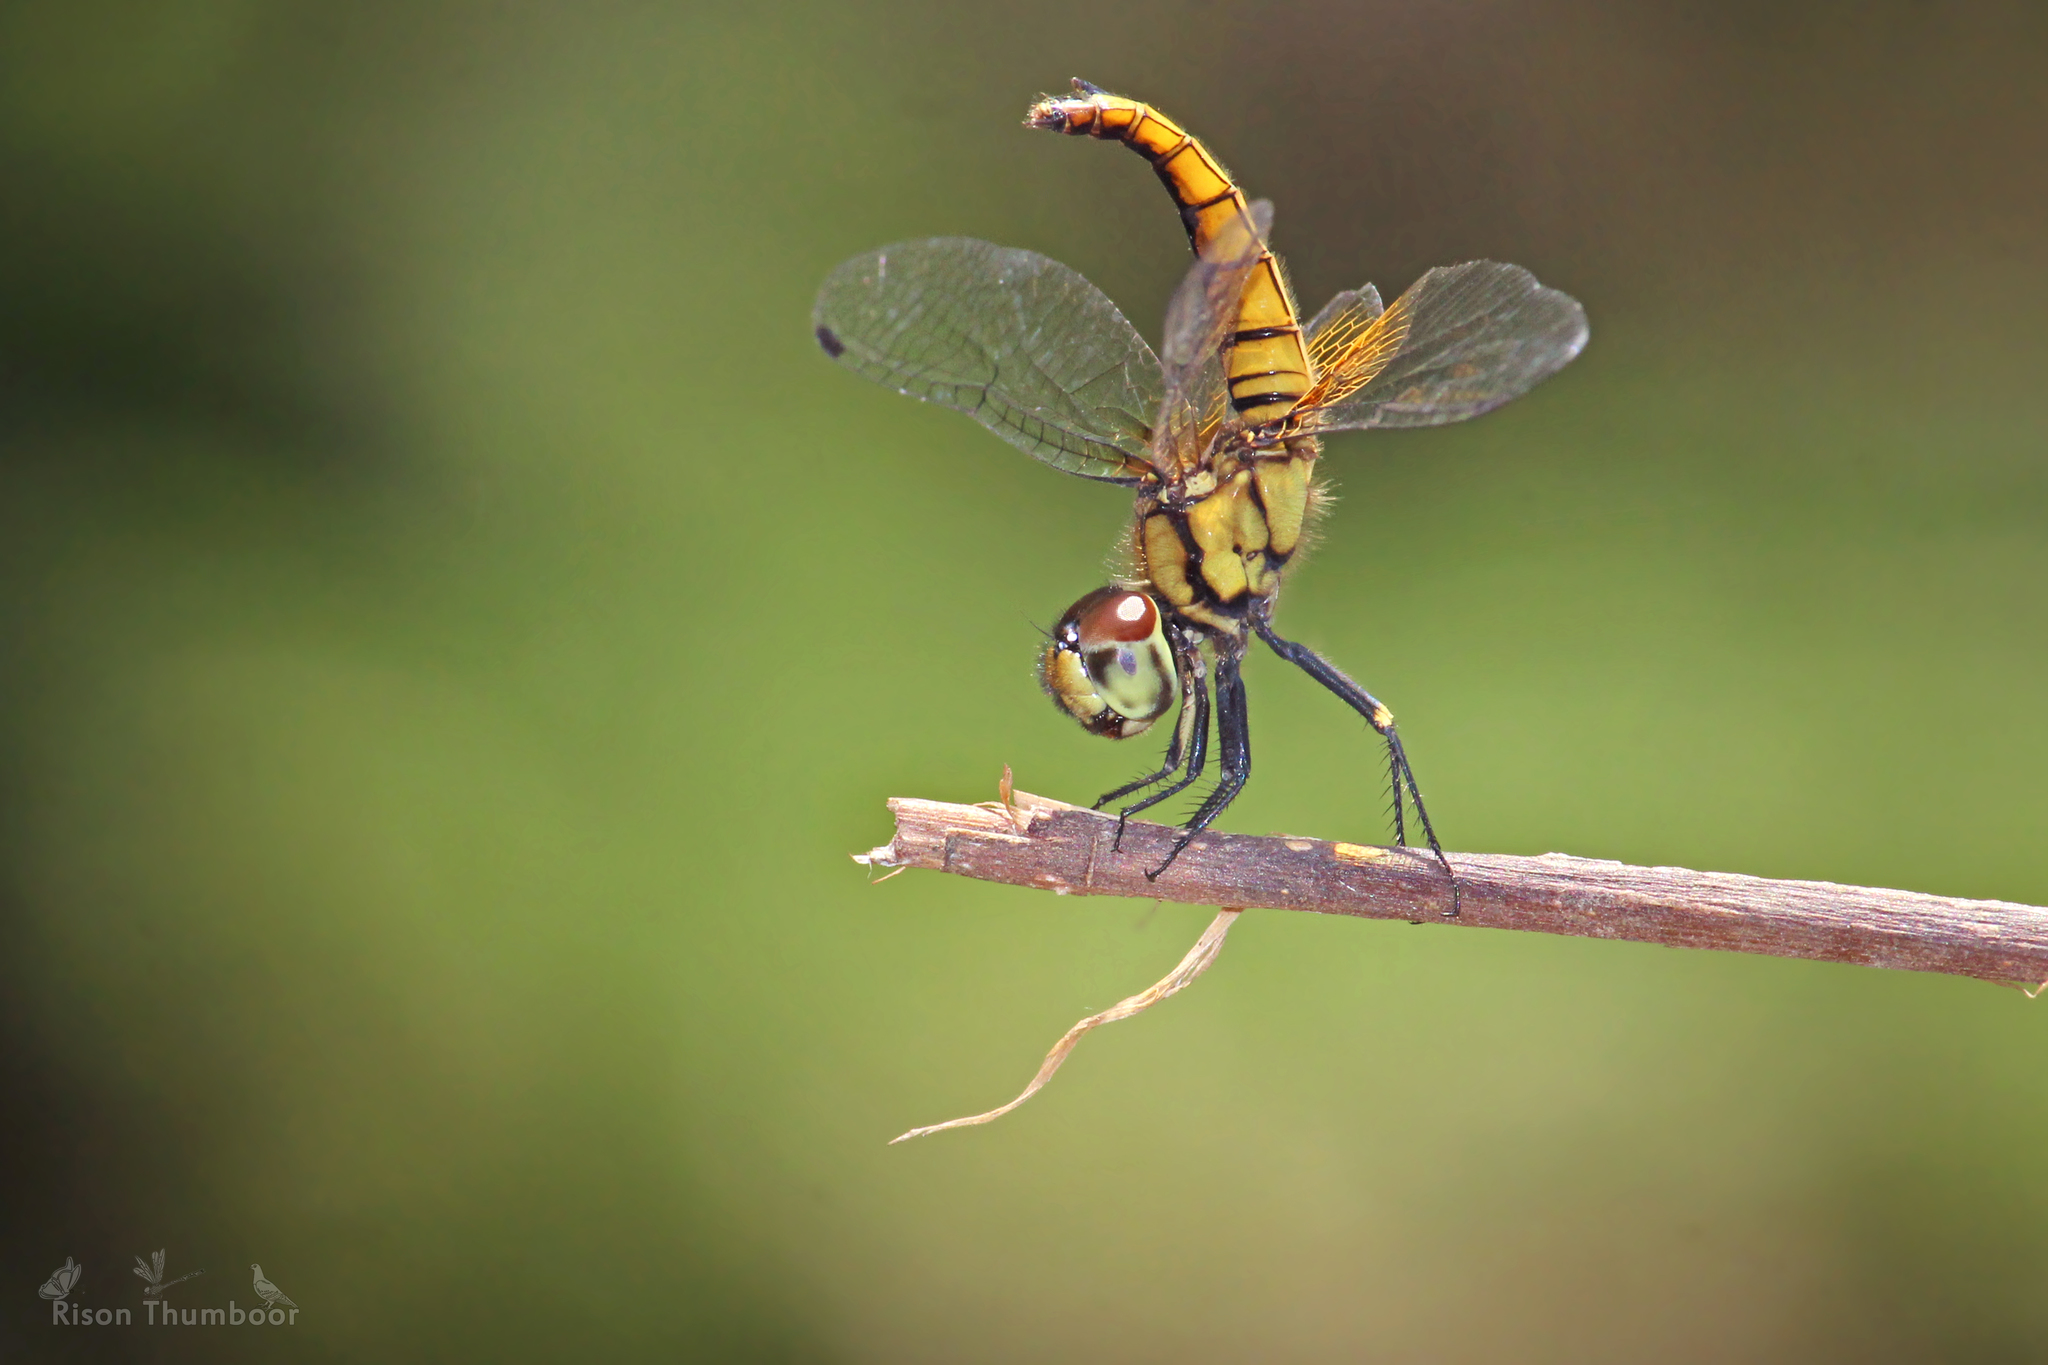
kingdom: Animalia
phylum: Arthropoda
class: Insecta
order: Odonata
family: Libellulidae
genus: Aethriamanta
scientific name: Aethriamanta brevipennis
